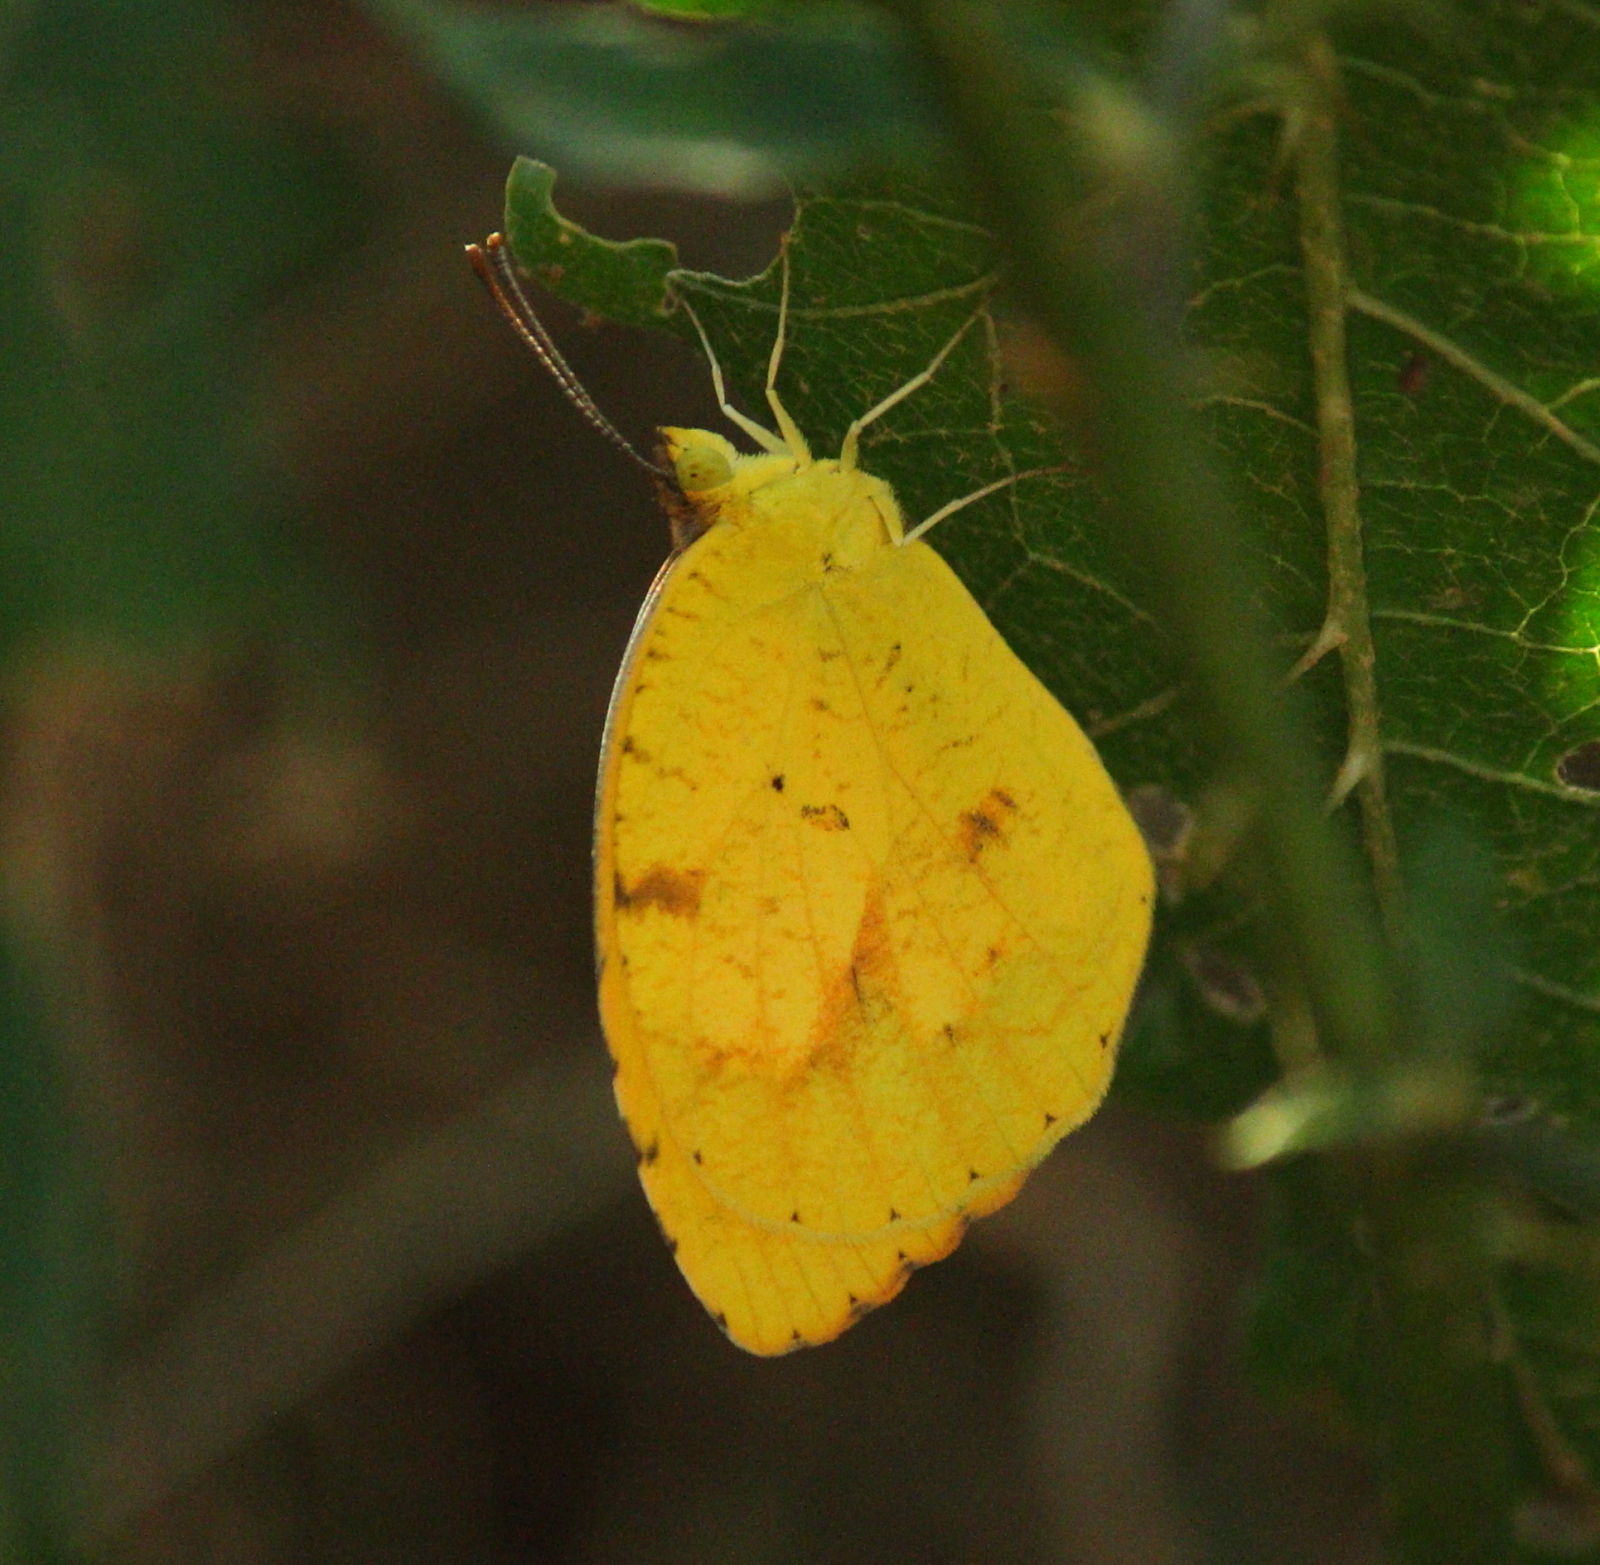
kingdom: Animalia
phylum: Arthropoda
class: Insecta
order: Lepidoptera
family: Pieridae
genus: Abaeis
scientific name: Abaeis nicippe
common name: Sleepy orange
